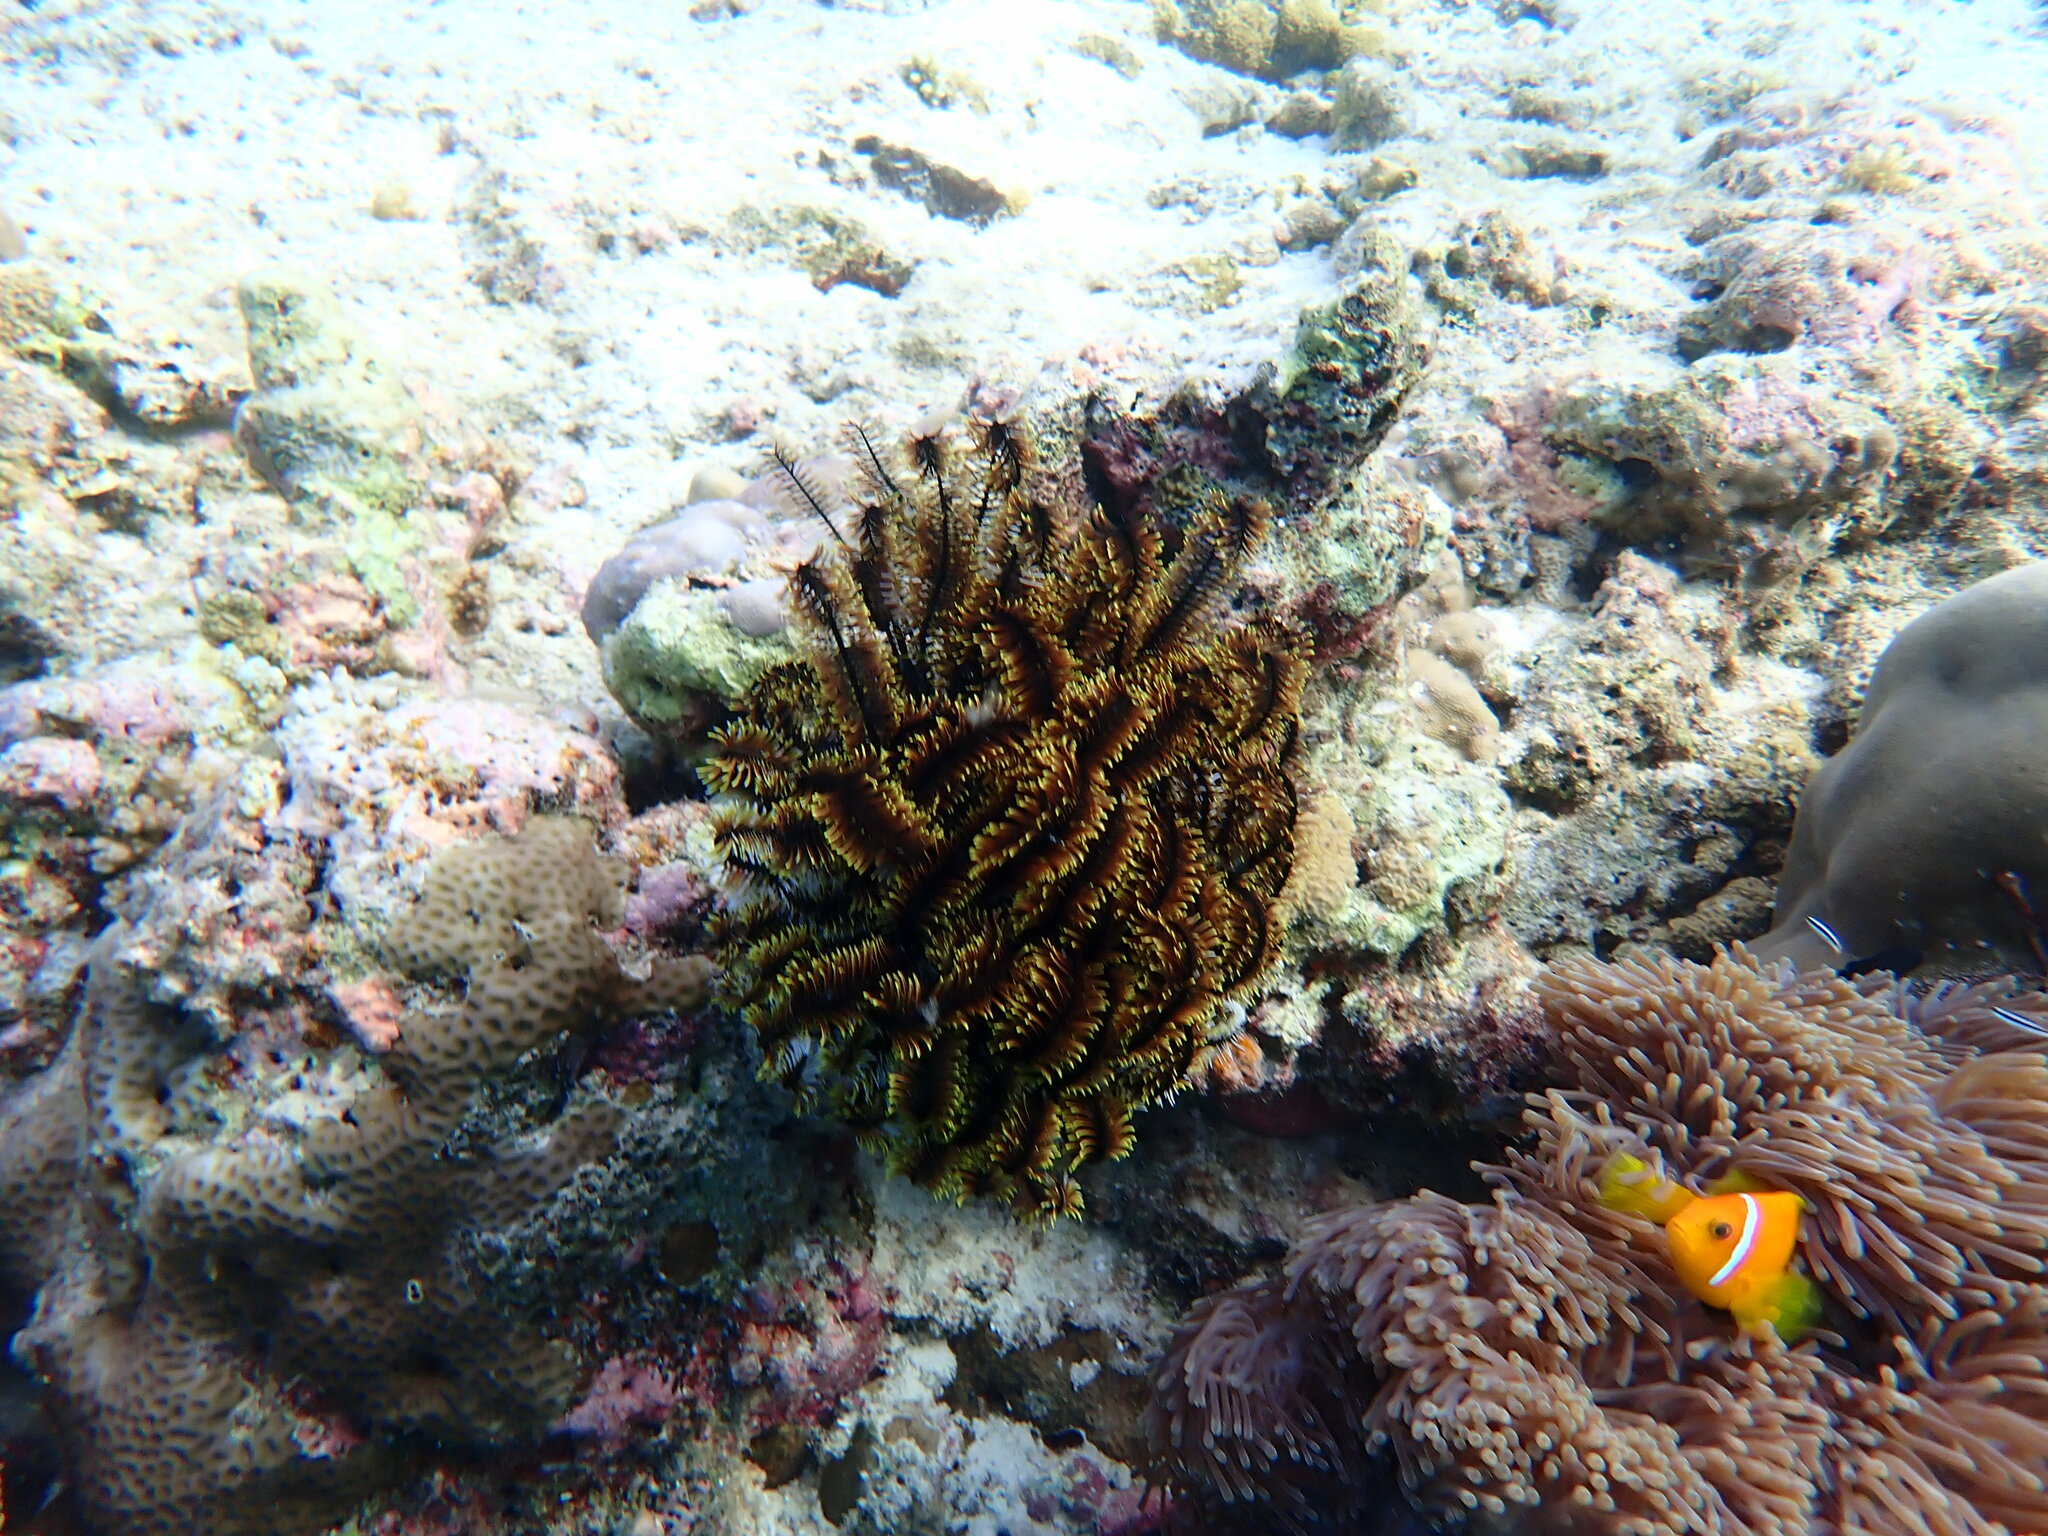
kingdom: Animalia
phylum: Echinodermata
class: Crinoidea
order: Comatulida
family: Comatulidae
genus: Comaster
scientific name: Comaster schlegelii
